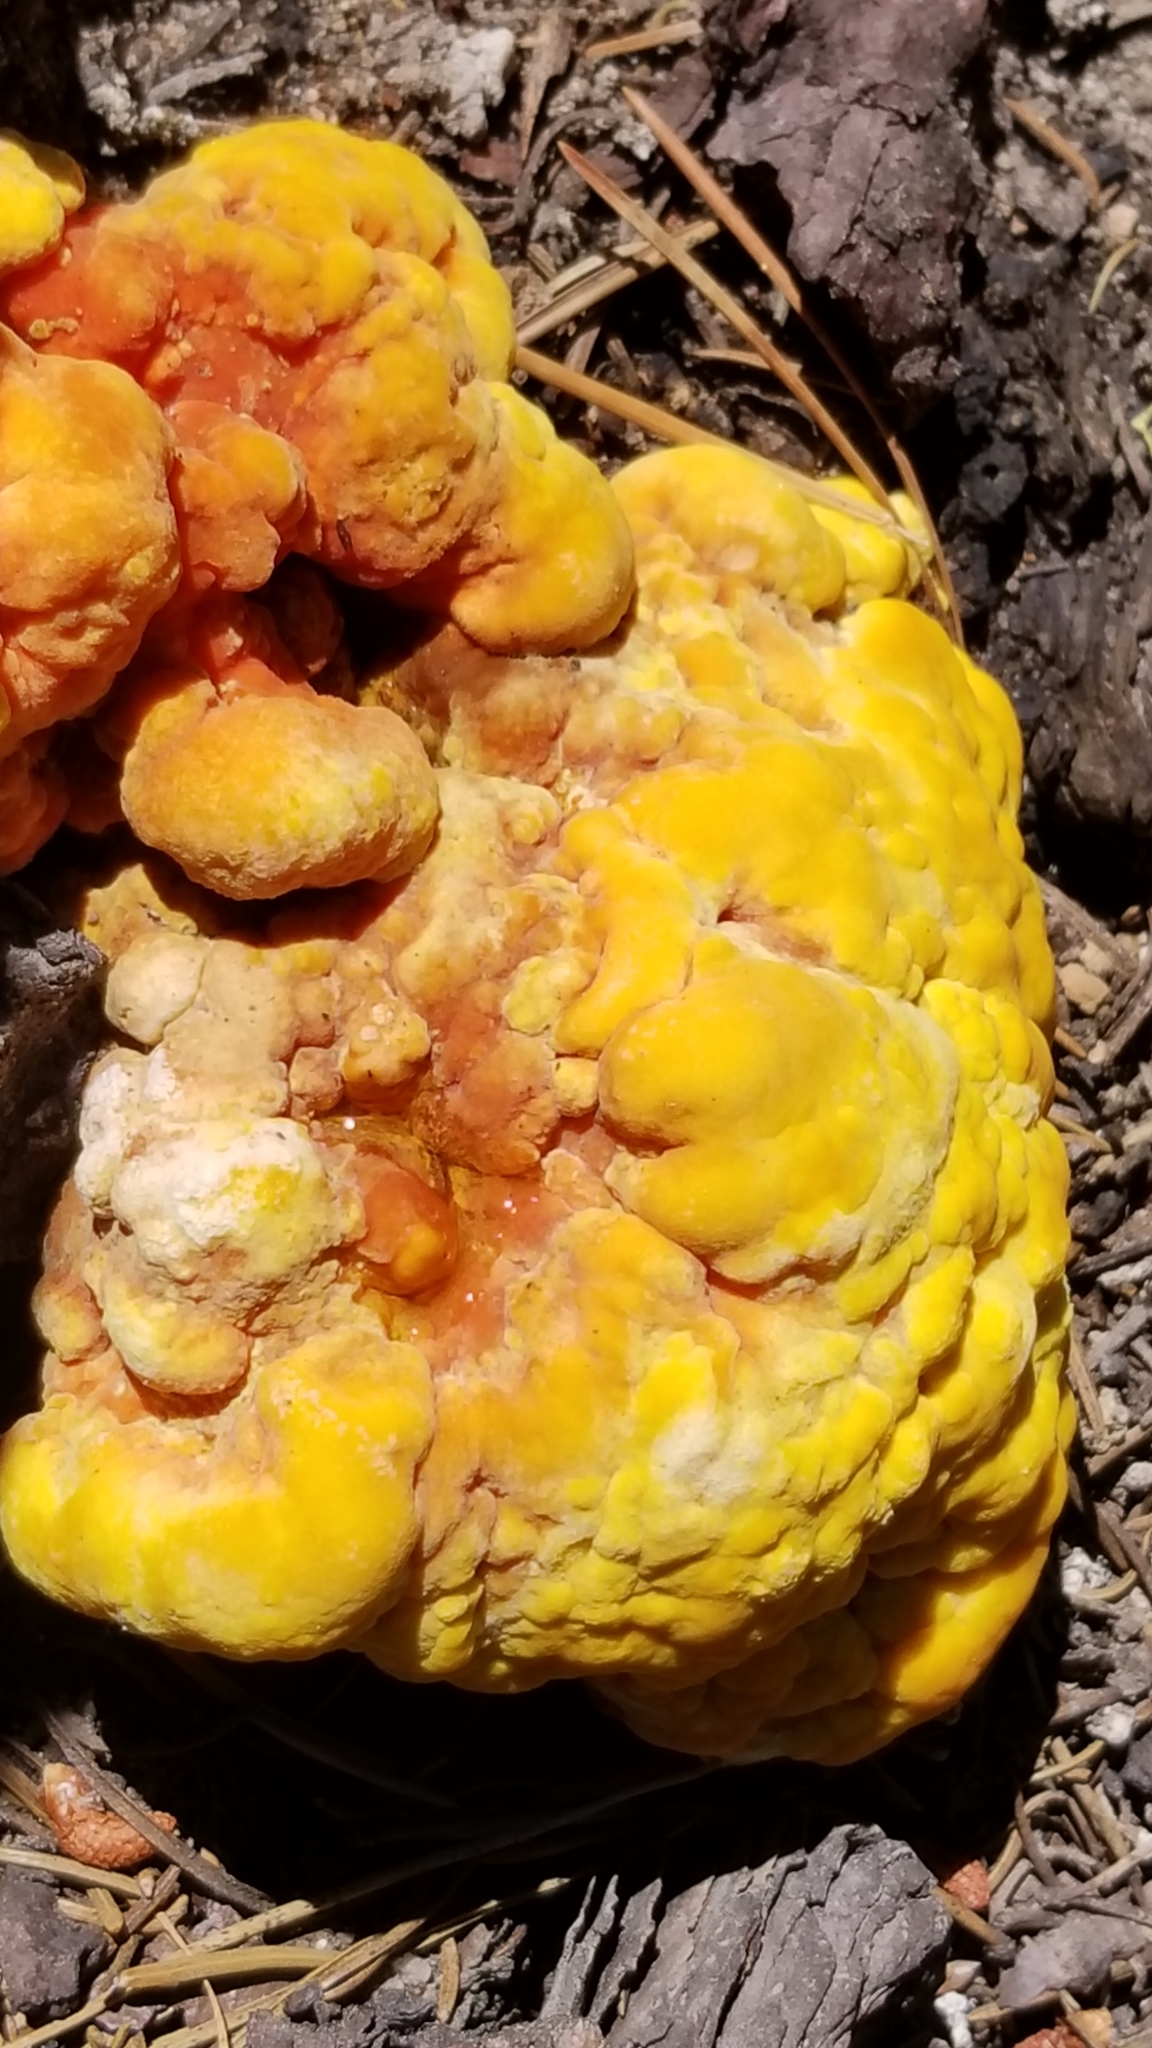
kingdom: Fungi
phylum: Basidiomycota
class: Agaricomycetes
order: Polyporales
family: Laetiporaceae
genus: Laetiporus
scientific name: Laetiporus conifericola
